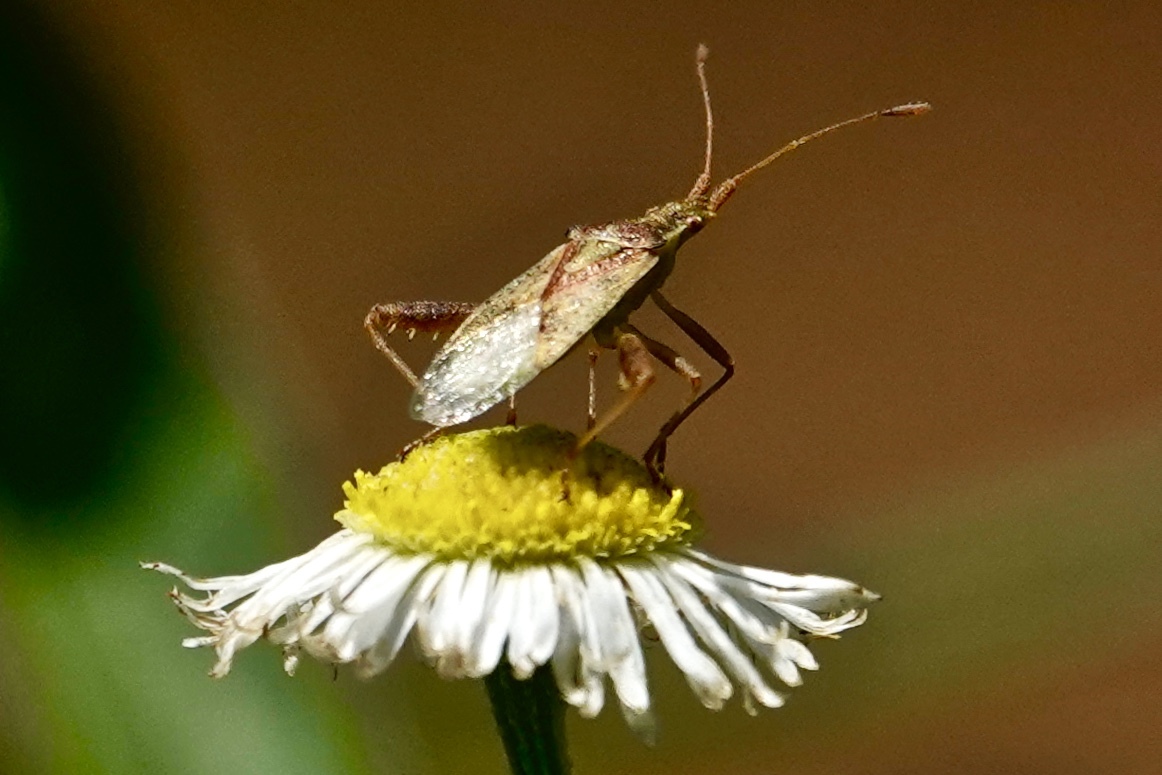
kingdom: Animalia
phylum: Arthropoda
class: Insecta
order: Hemiptera
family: Rhopalidae
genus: Harmostes
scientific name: Harmostes reflexulus
